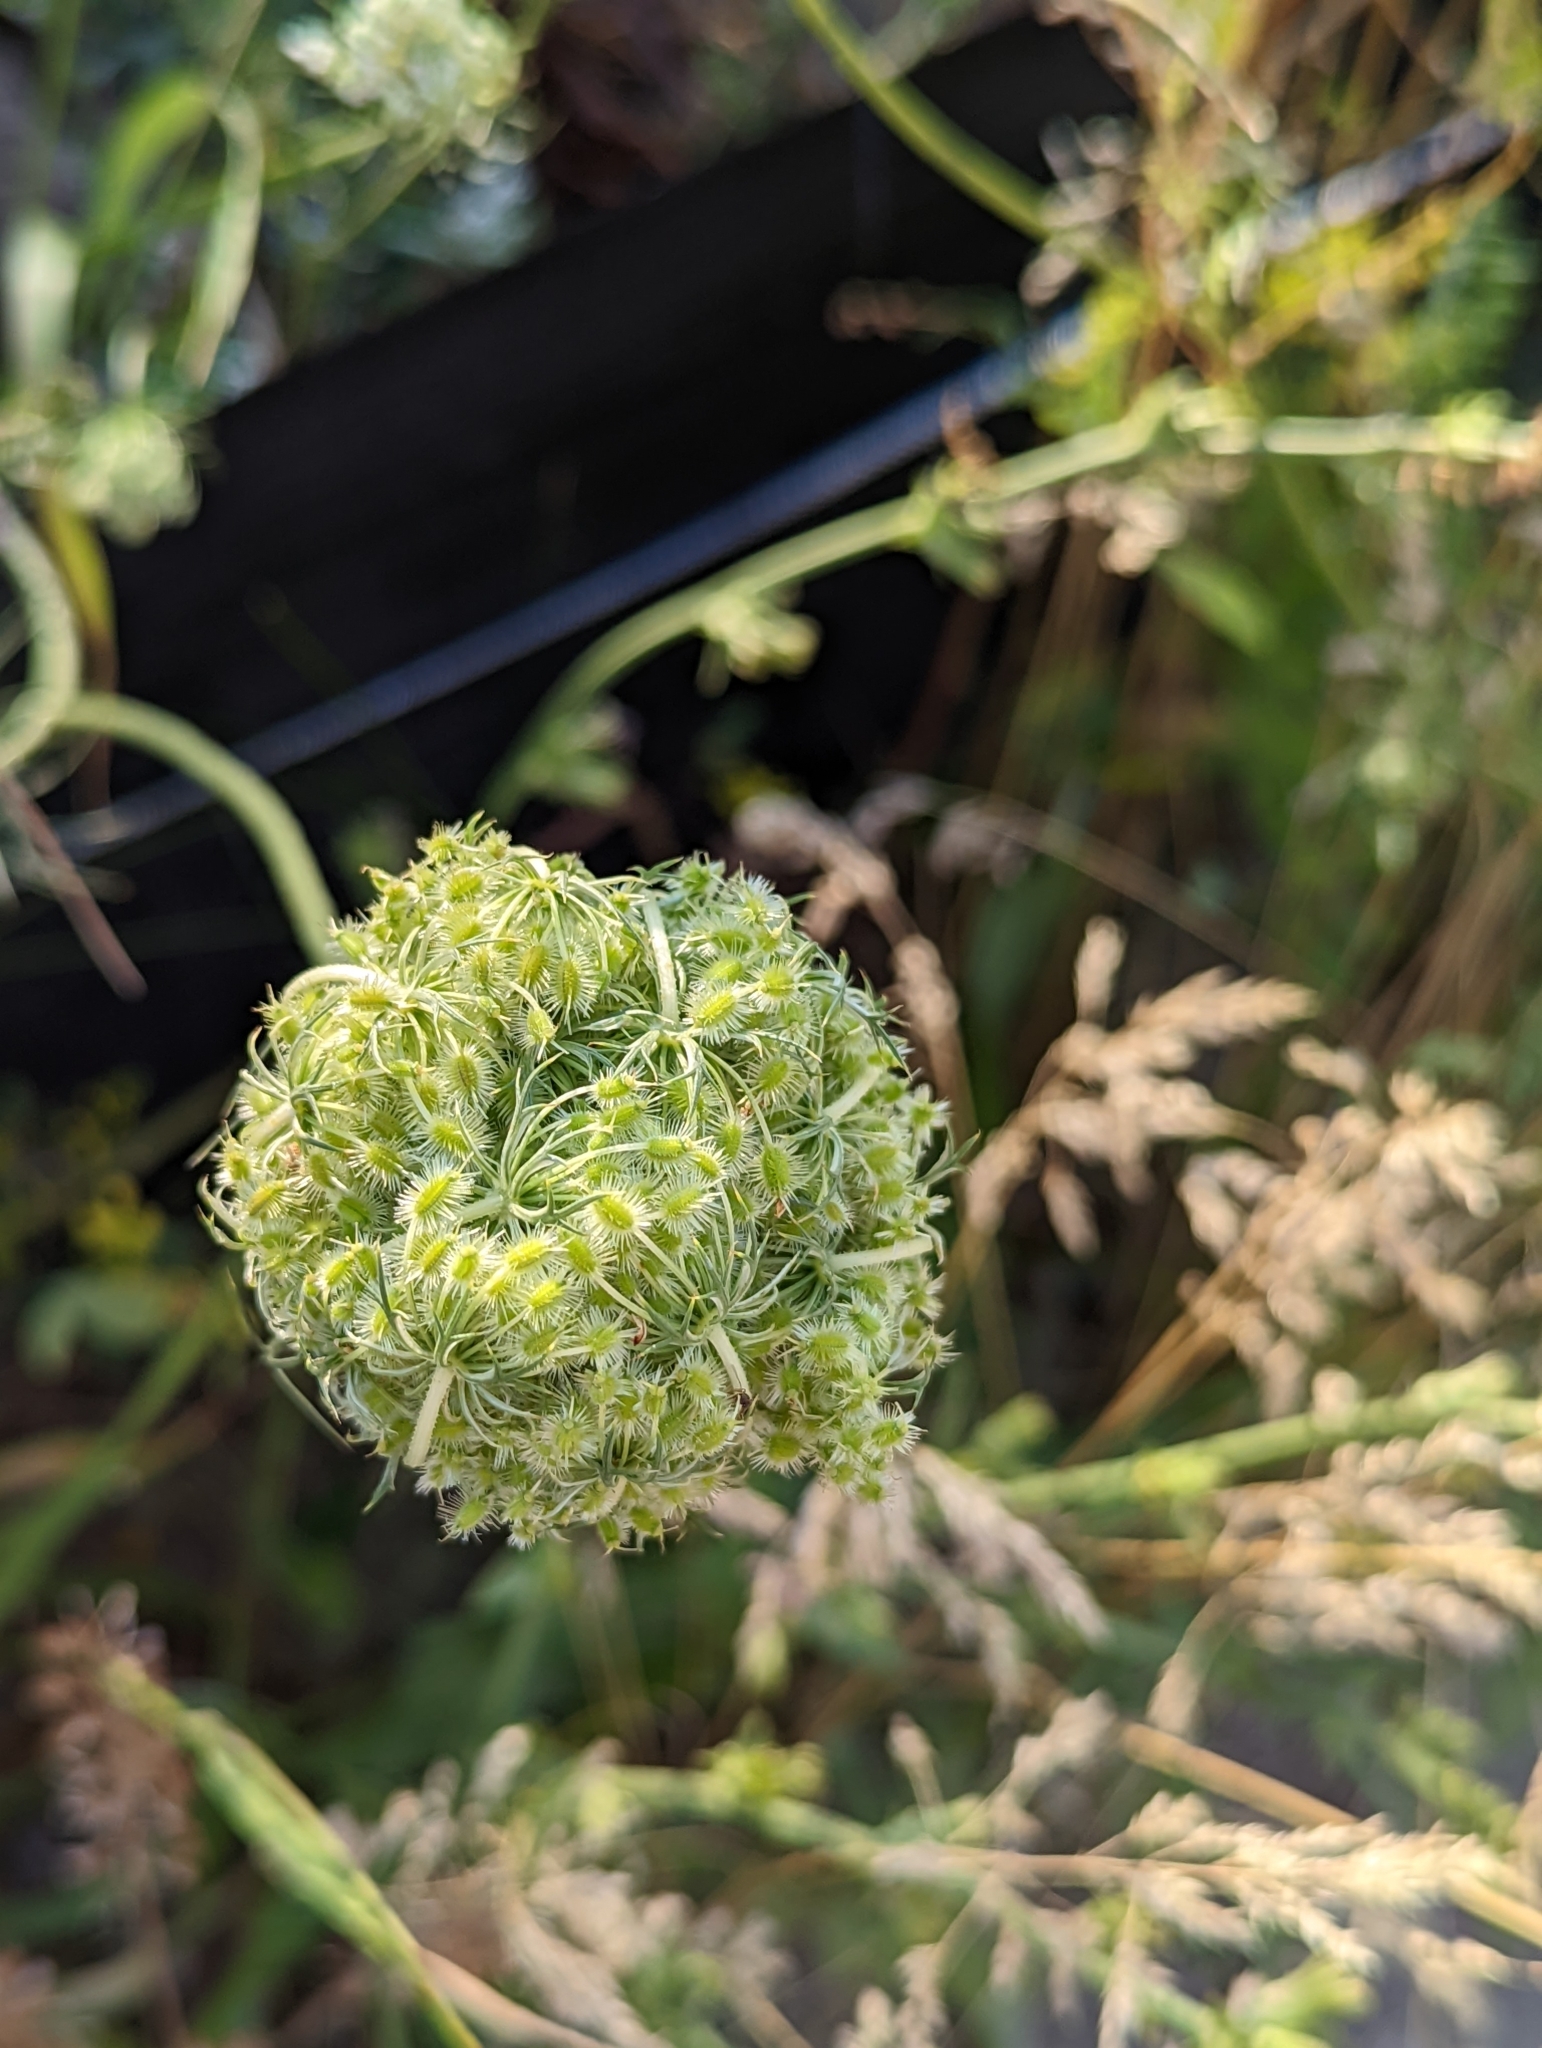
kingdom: Plantae
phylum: Tracheophyta
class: Magnoliopsida
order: Apiales
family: Apiaceae
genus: Daucus
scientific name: Daucus carota
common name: Wild carrot
